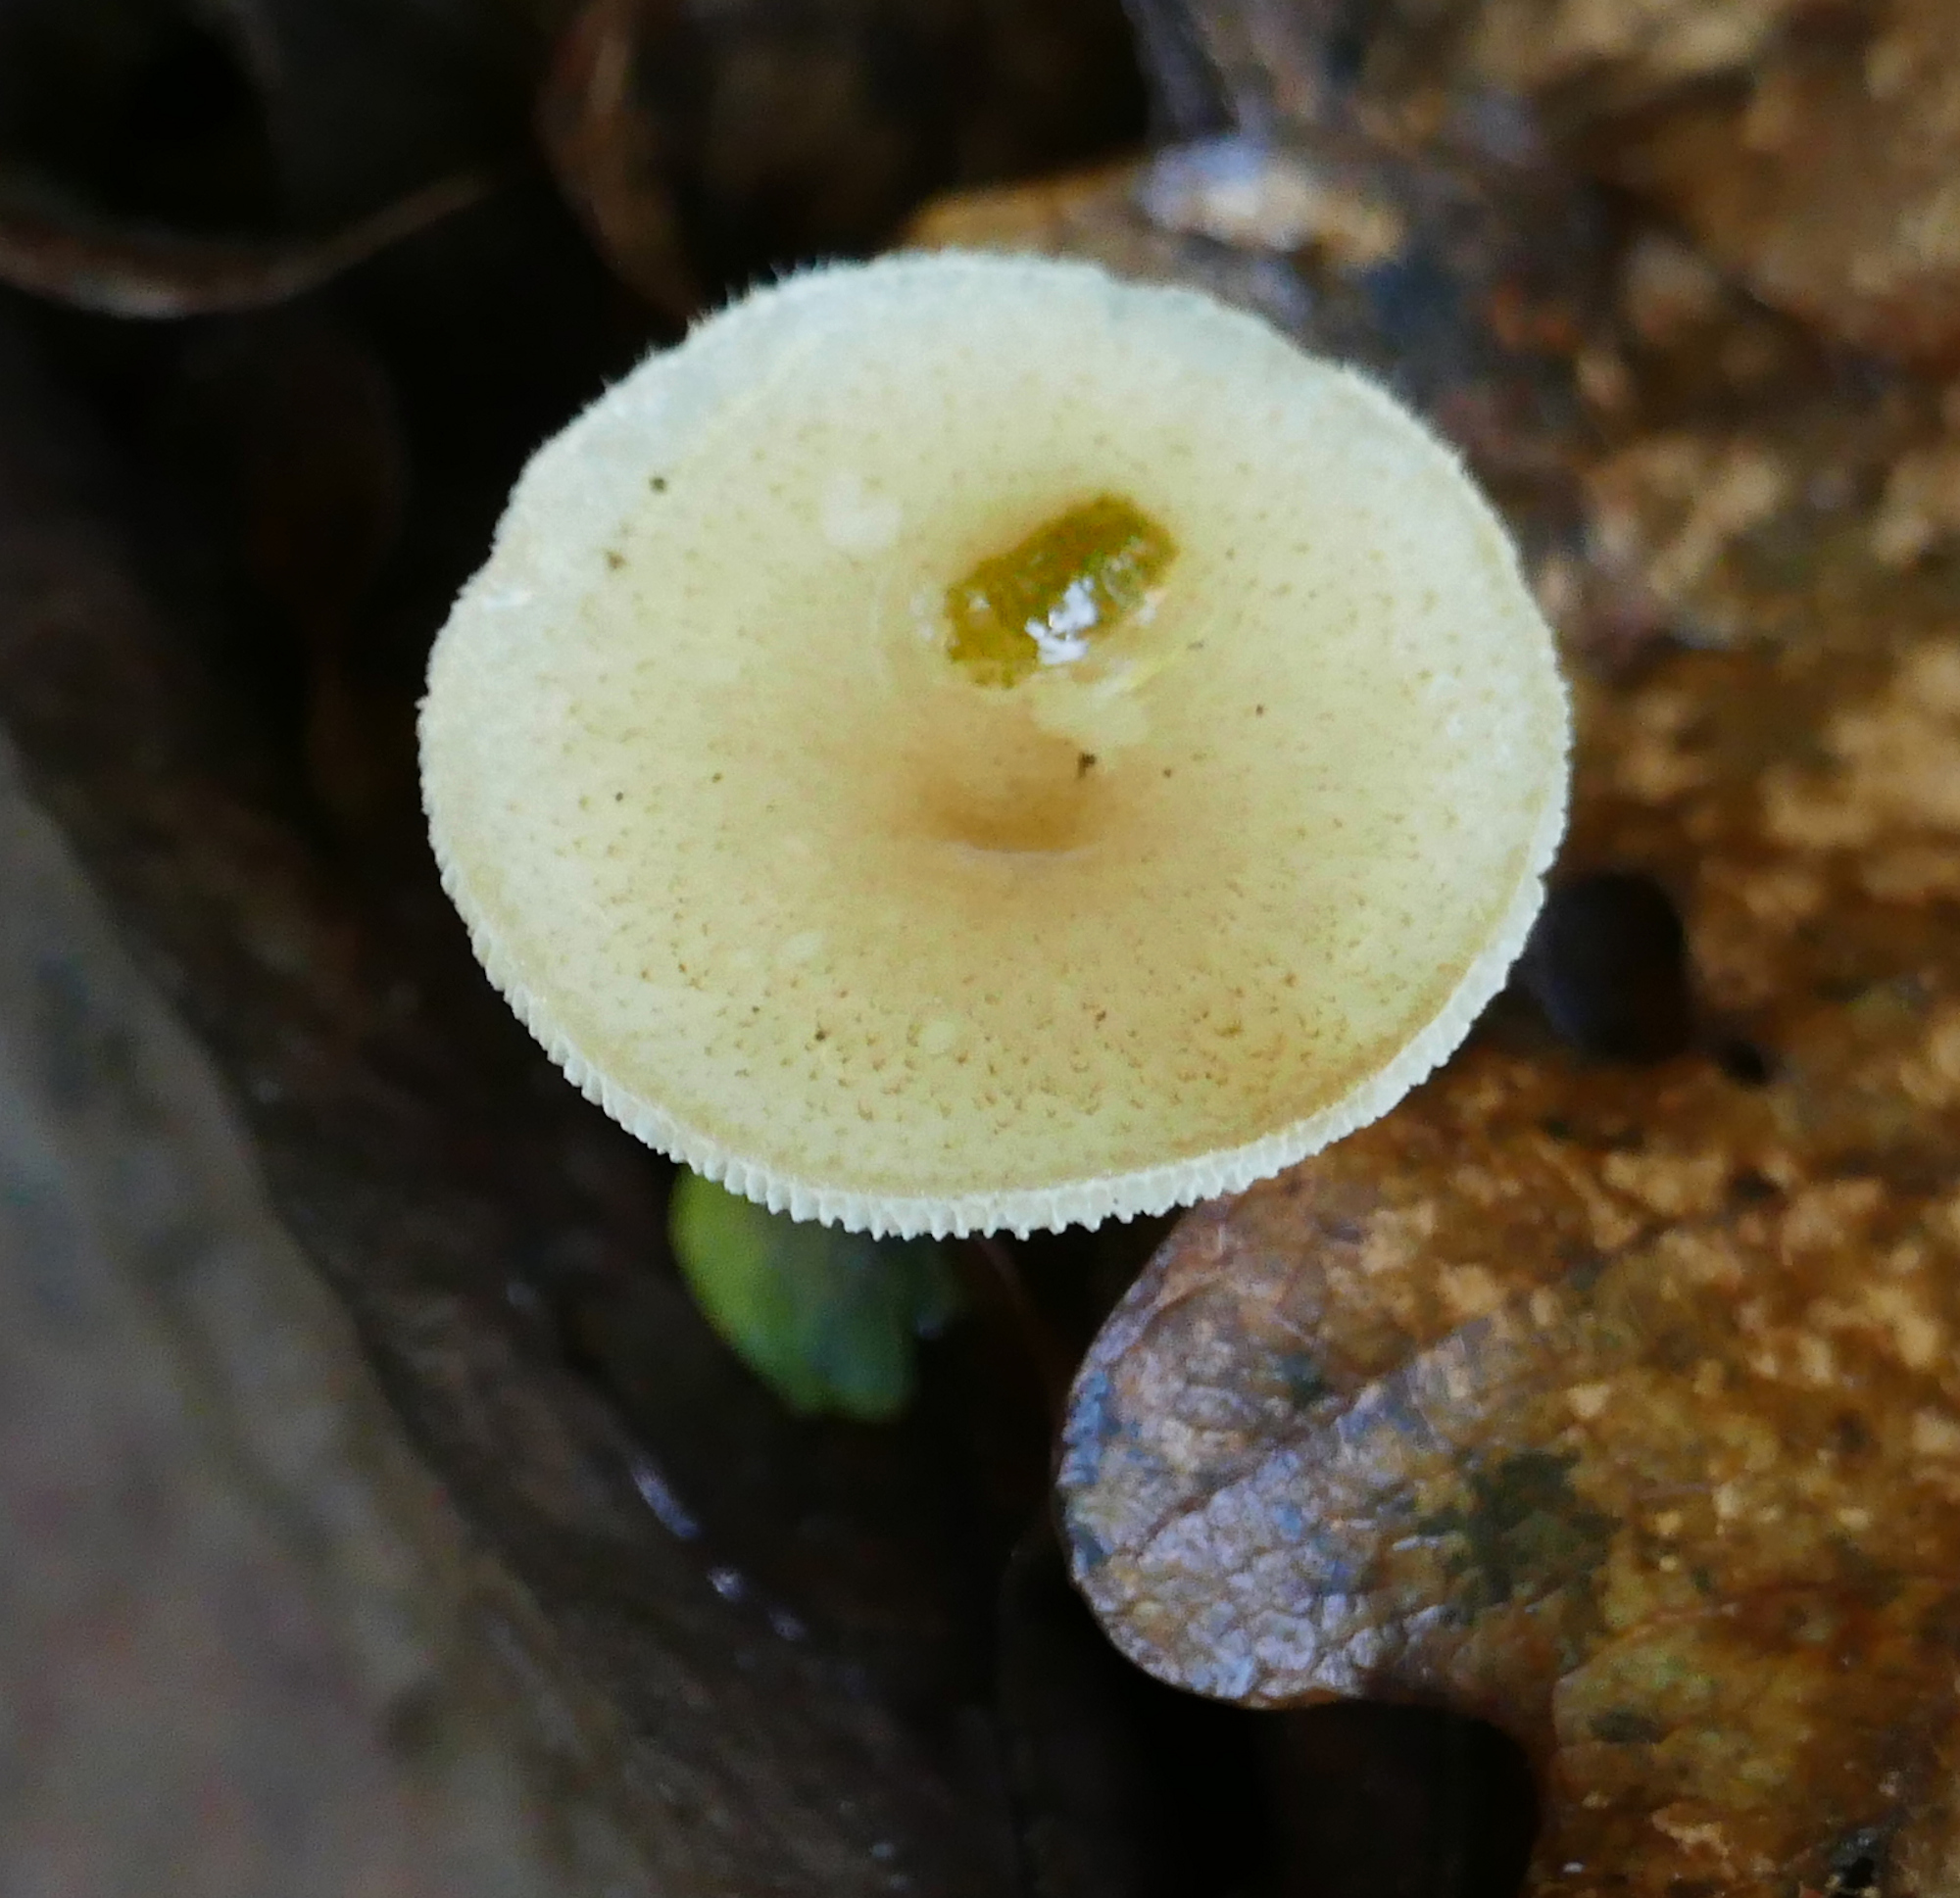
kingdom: Fungi
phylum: Basidiomycota
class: Agaricomycetes
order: Polyporales
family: Polyporaceae
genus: Lentinus
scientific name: Lentinus arcularius
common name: Spring polypore
